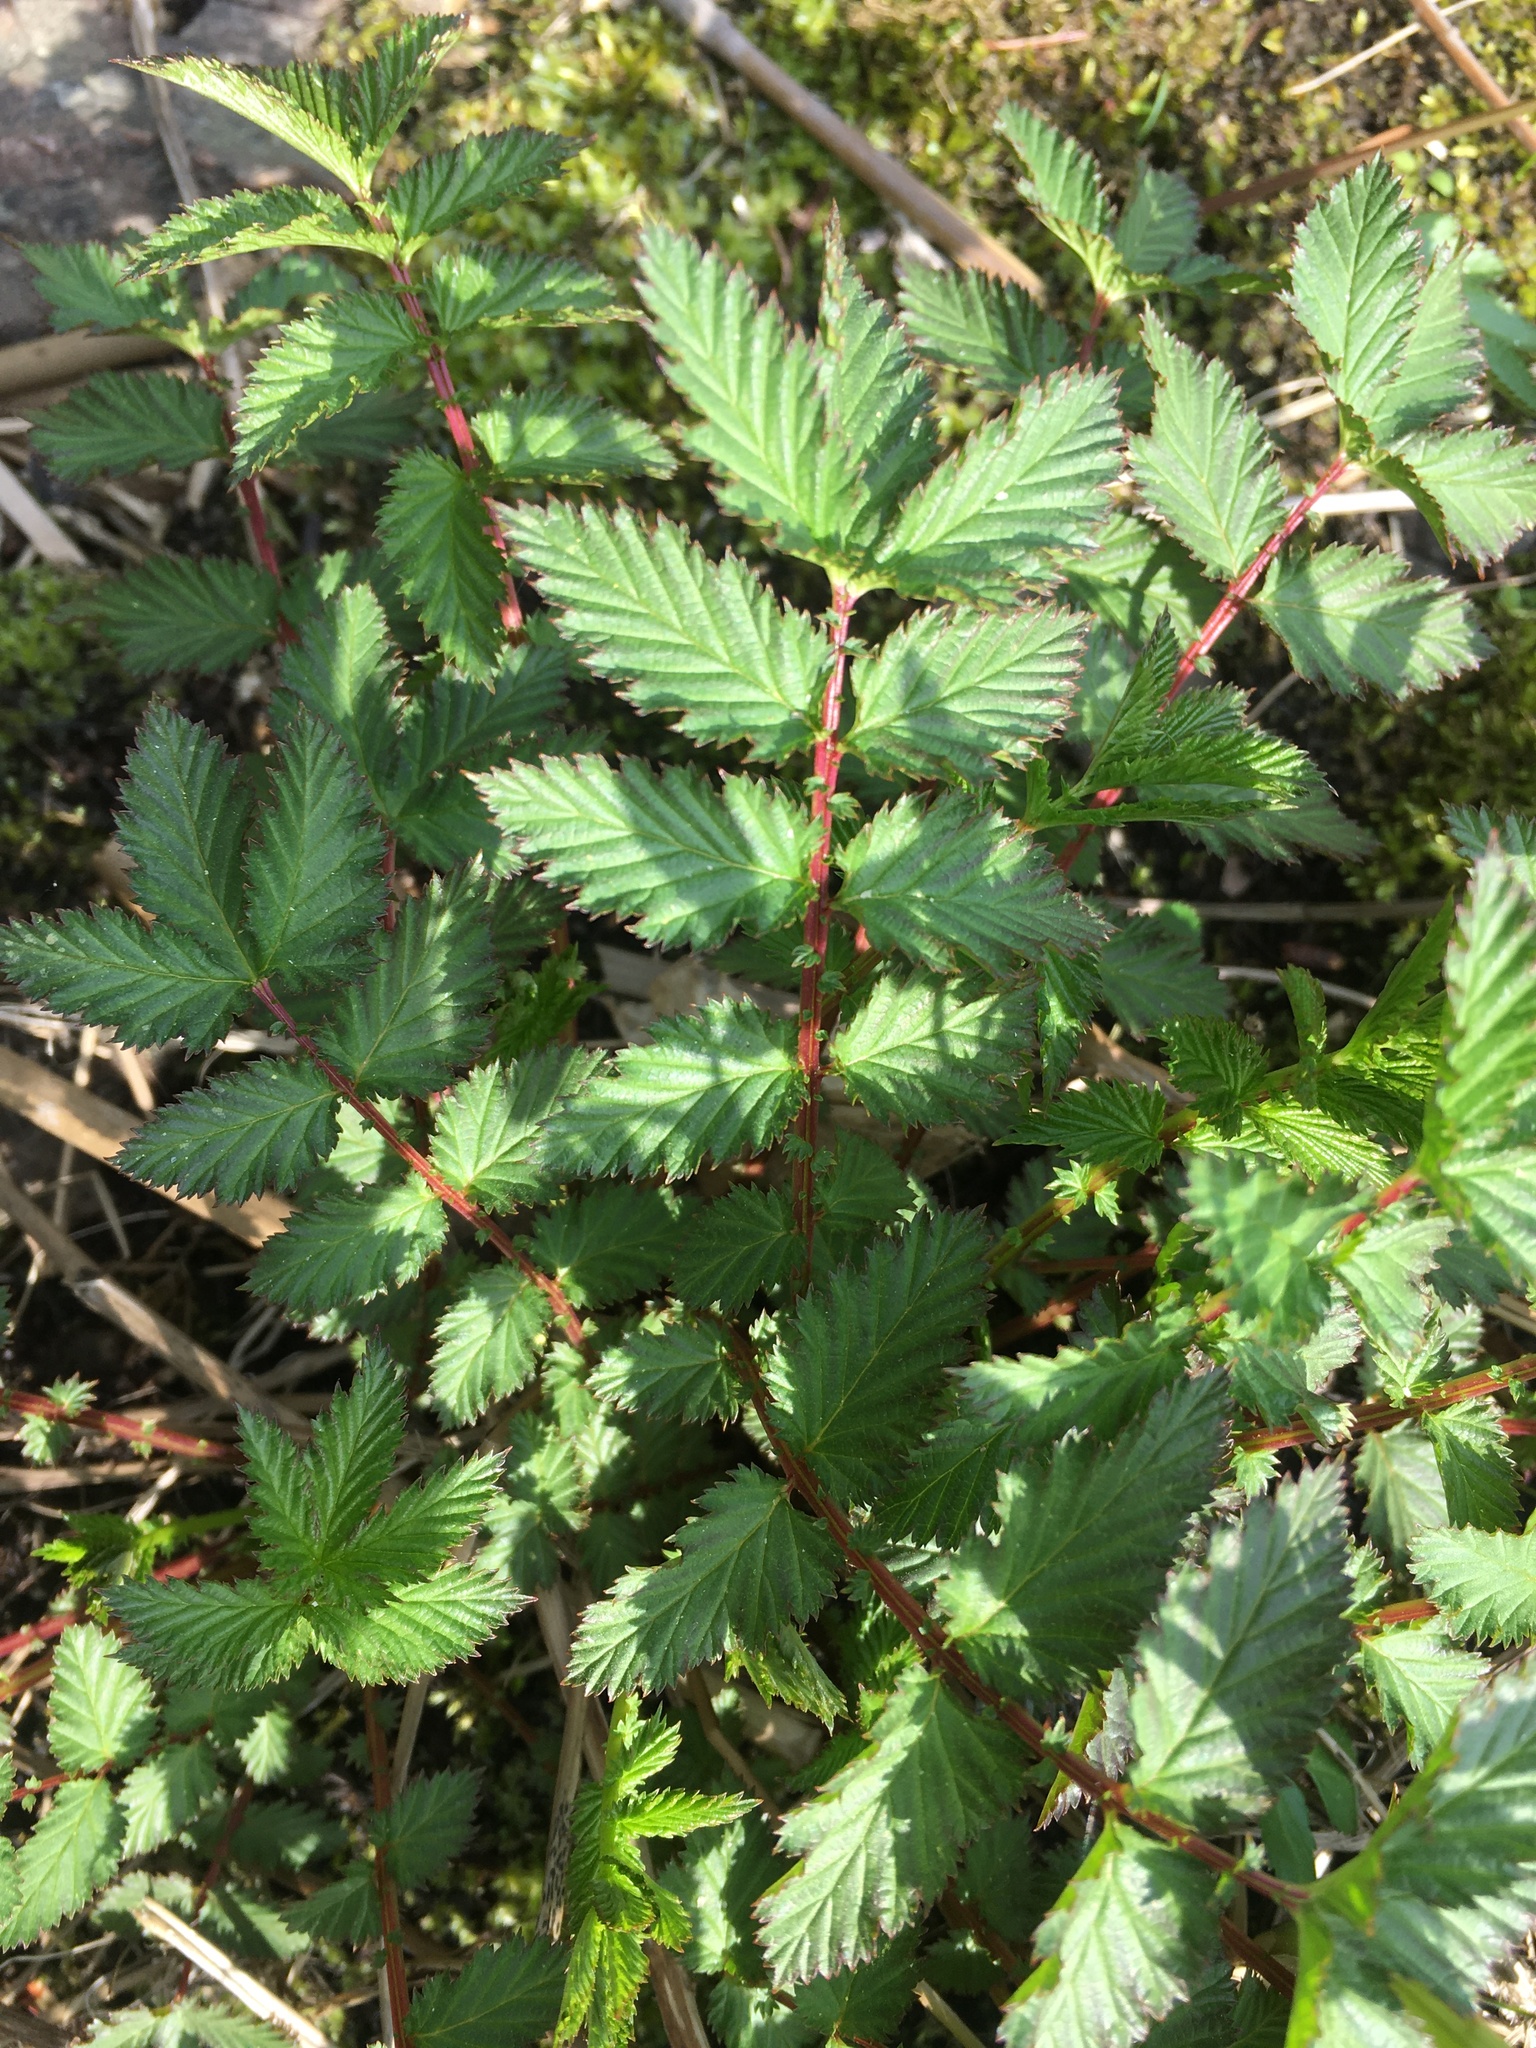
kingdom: Plantae
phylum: Tracheophyta
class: Magnoliopsida
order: Rosales
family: Rosaceae
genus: Filipendula
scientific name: Filipendula ulmaria
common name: Meadowsweet
